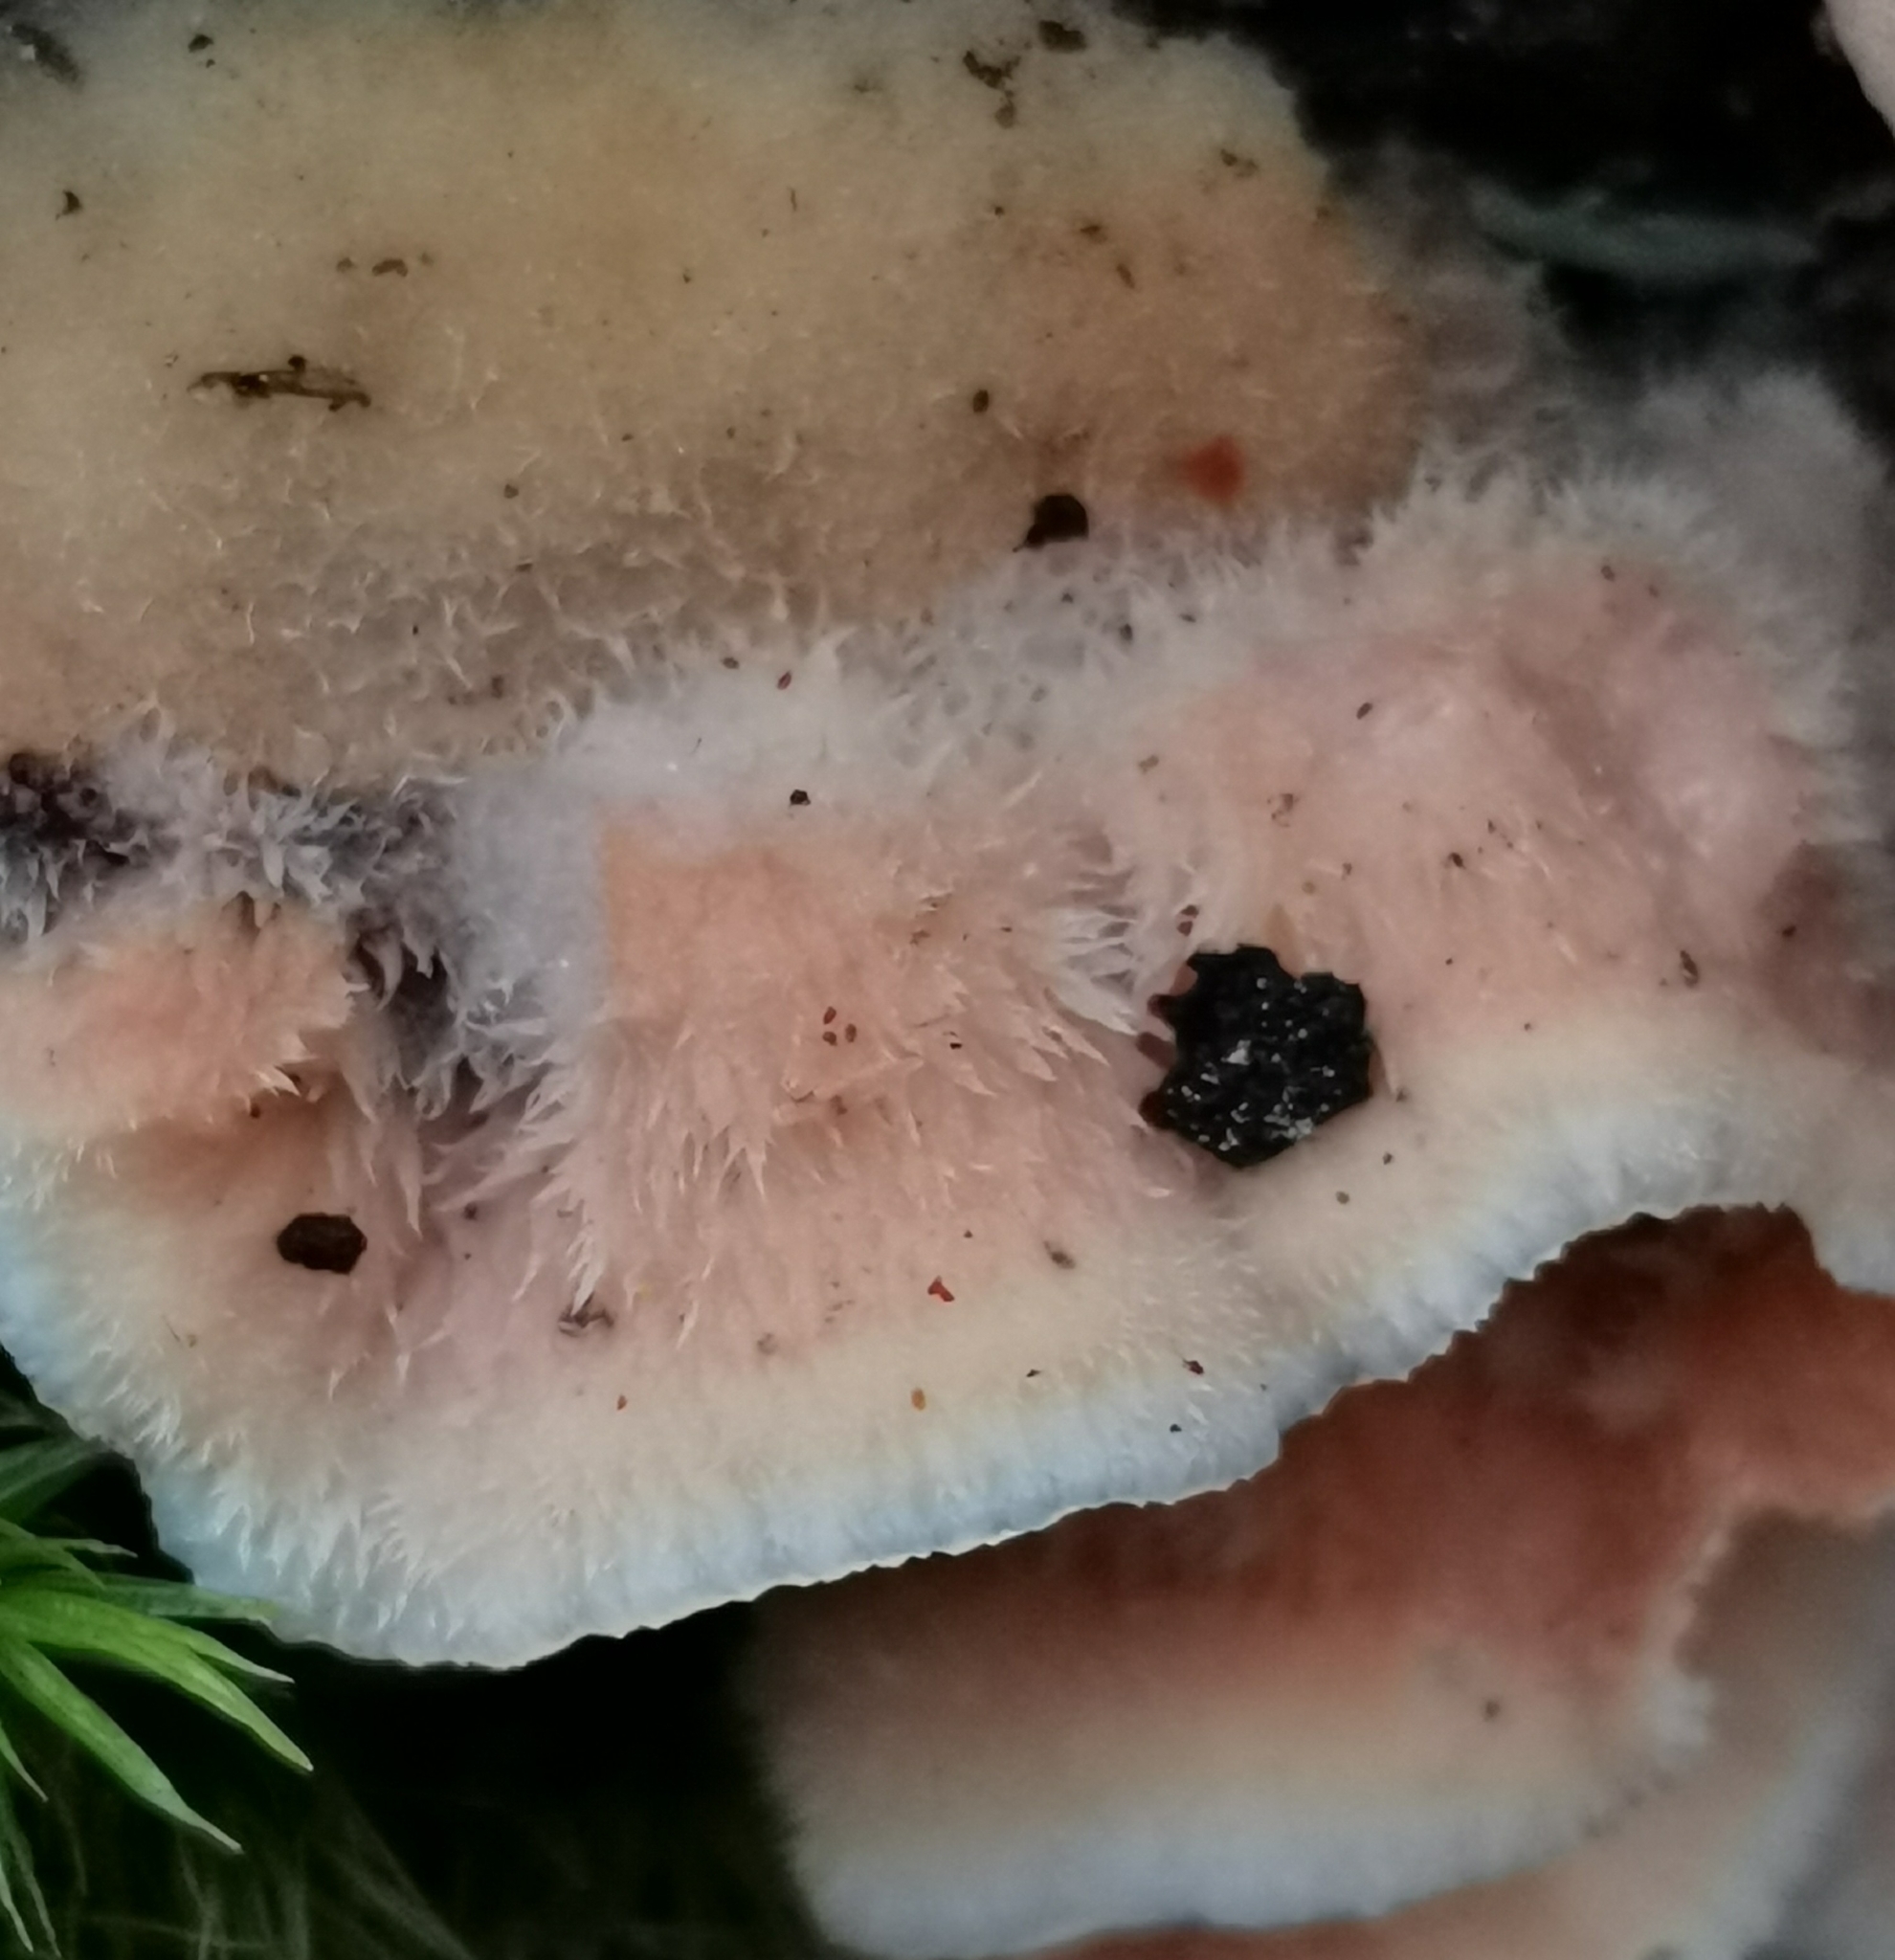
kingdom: Fungi
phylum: Basidiomycota
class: Agaricomycetes
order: Polyporales
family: Meruliaceae
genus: Phlebia
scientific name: Phlebia tremellosa
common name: Jelly rot
